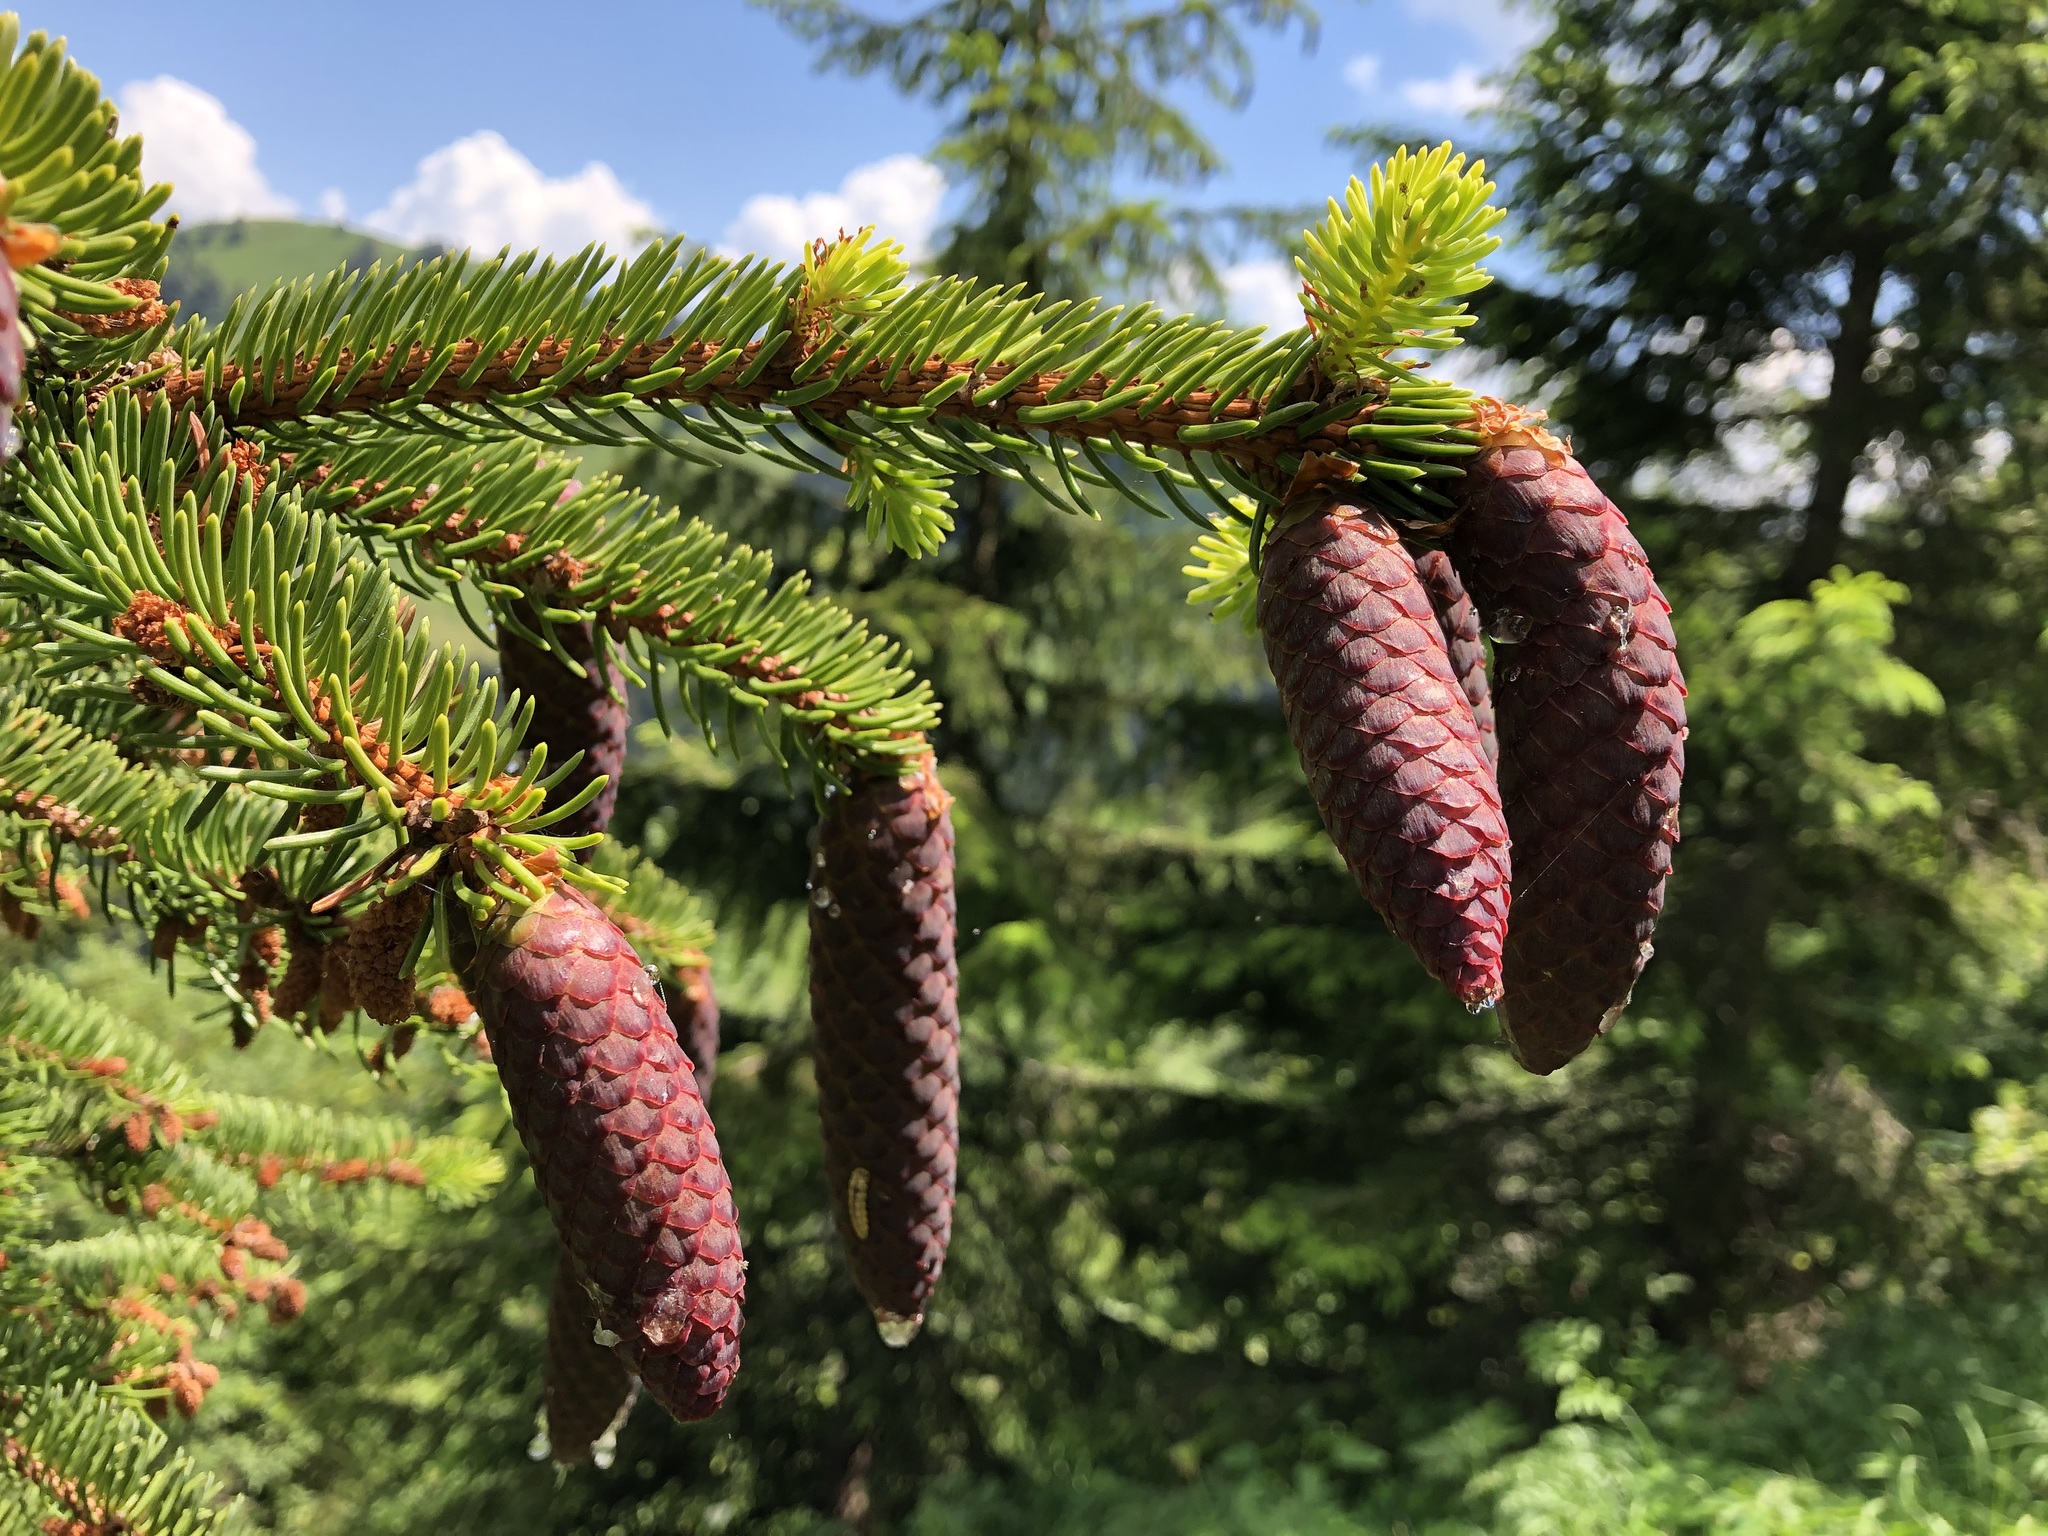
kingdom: Plantae
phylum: Tracheophyta
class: Pinopsida
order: Pinales
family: Pinaceae
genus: Picea
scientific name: Picea abies
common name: Norway spruce
